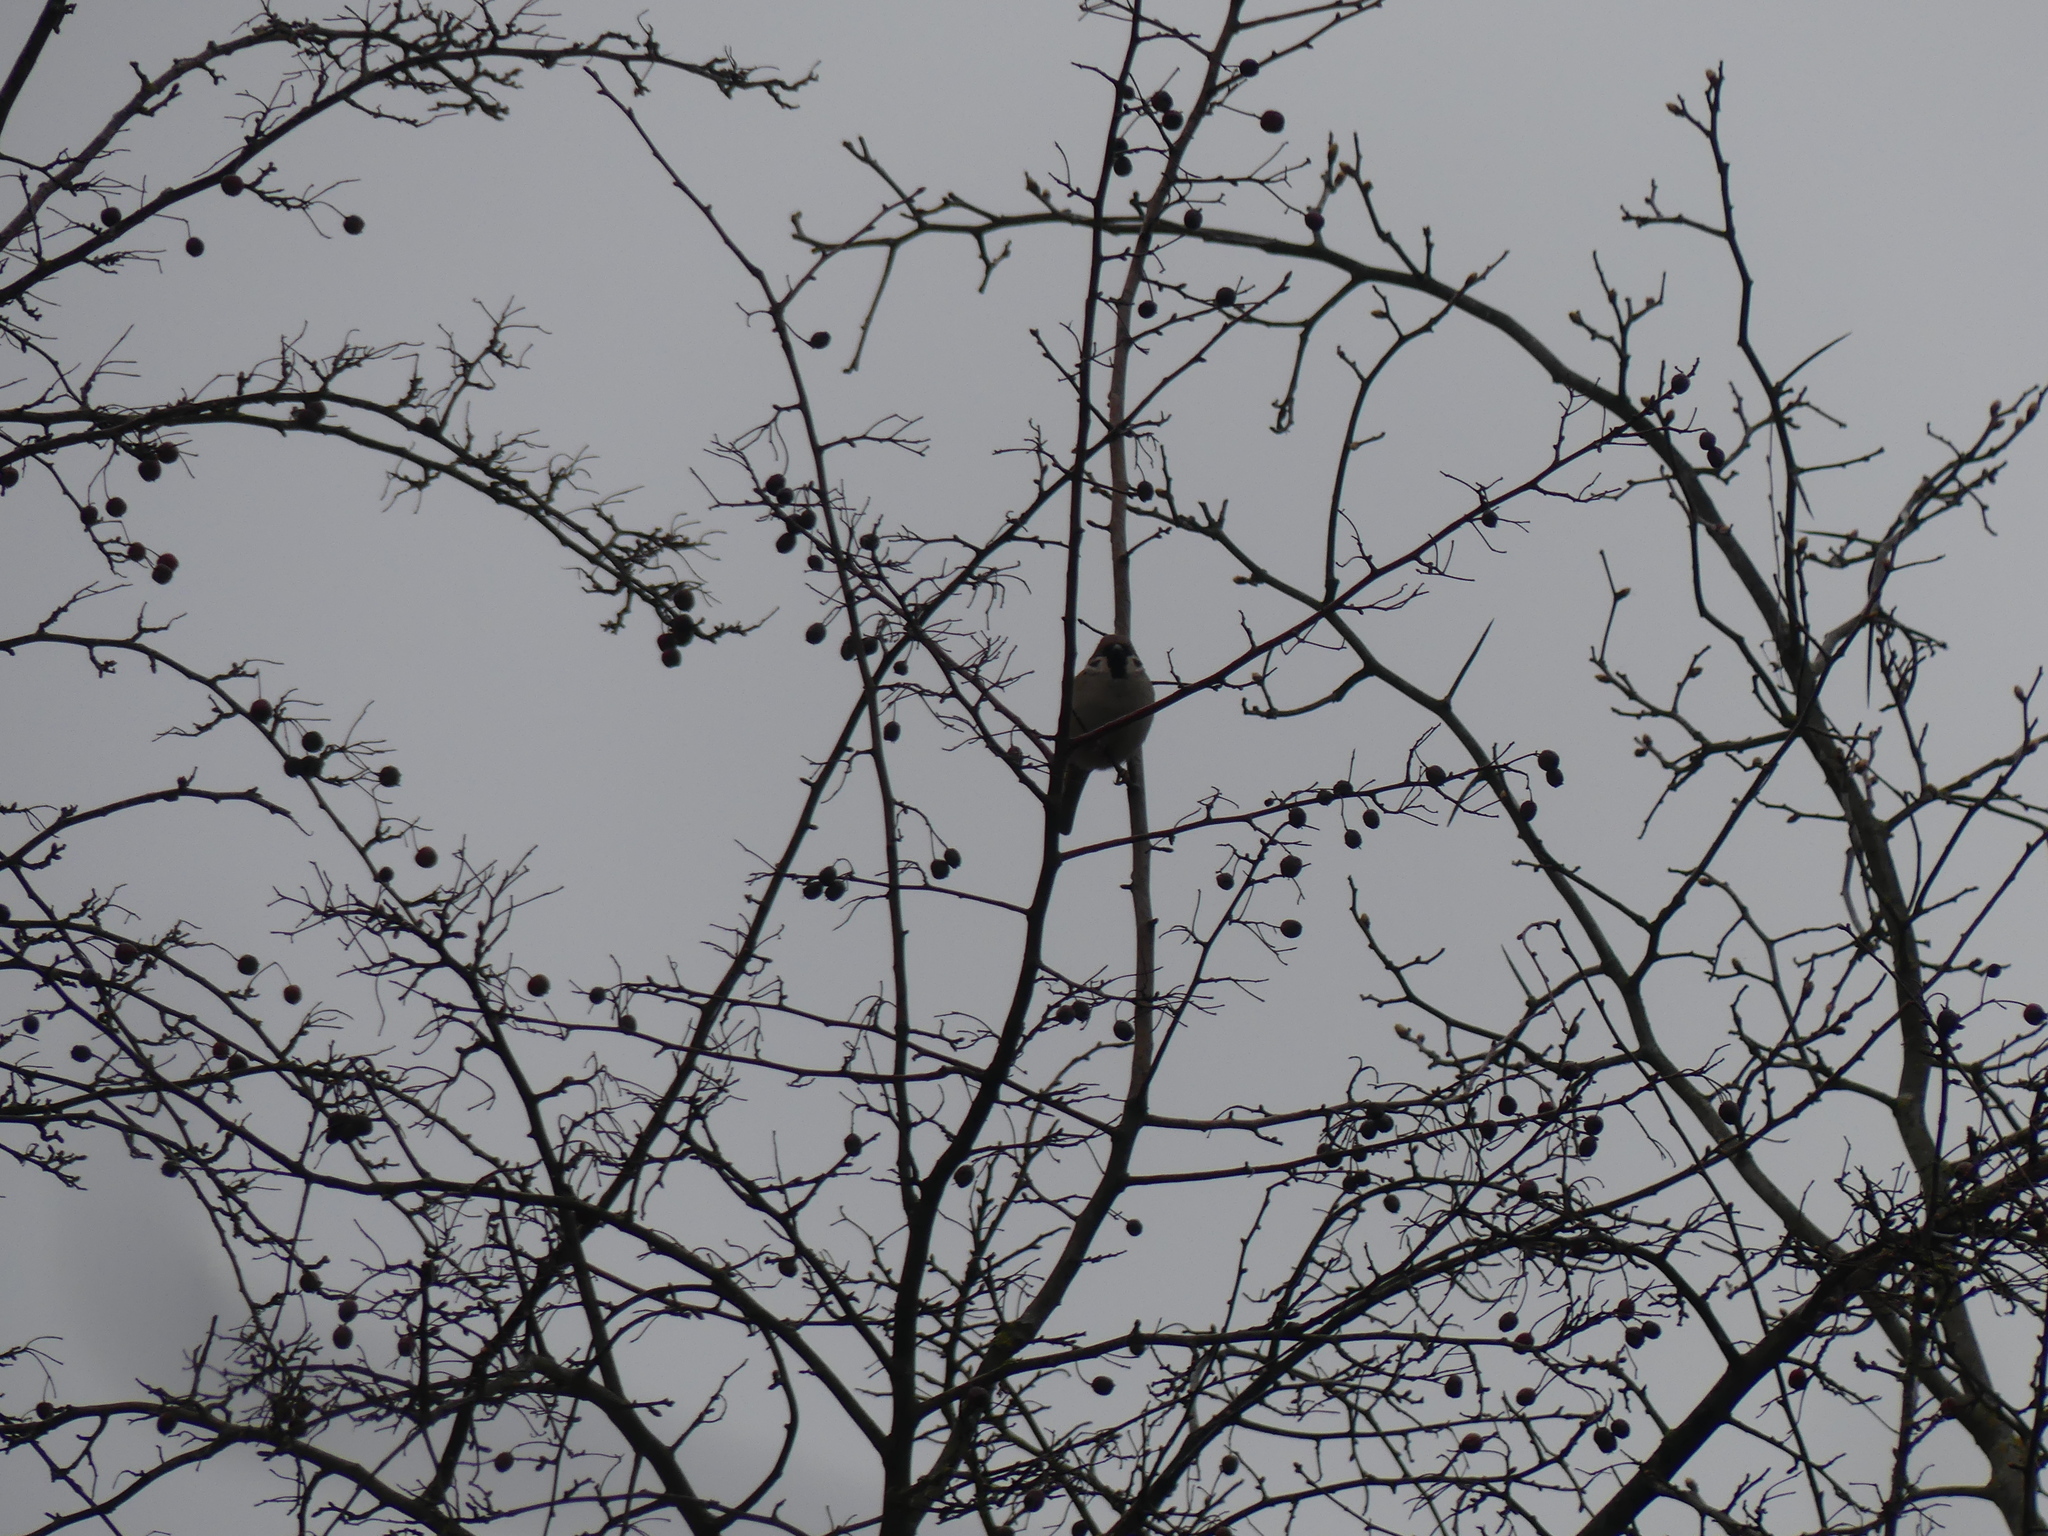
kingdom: Animalia
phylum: Chordata
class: Aves
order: Passeriformes
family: Passeridae
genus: Passer
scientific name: Passer montanus
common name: Eurasian tree sparrow
